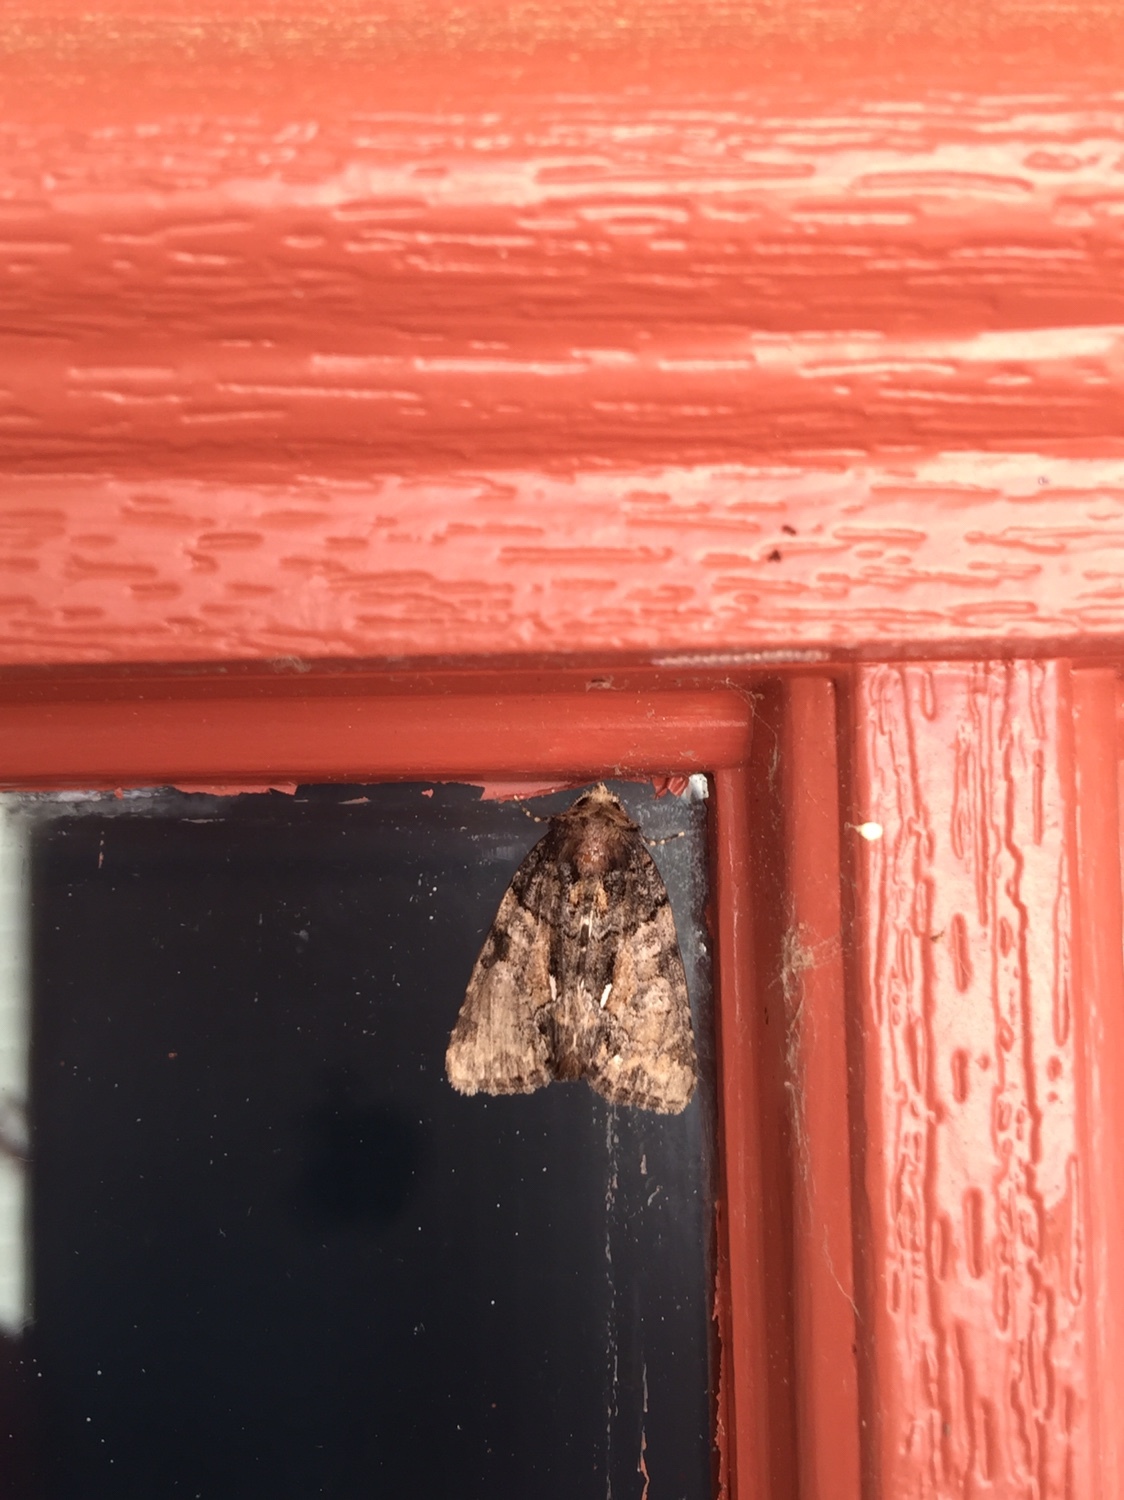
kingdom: Animalia
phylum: Arthropoda
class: Insecta
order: Lepidoptera
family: Noctuidae
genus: Chytonix
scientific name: Chytonix palliatricula
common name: Cloaked marvel
